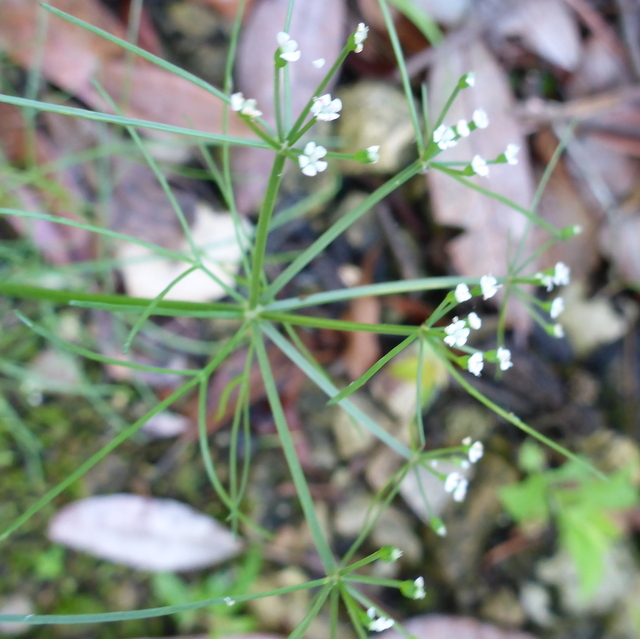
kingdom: Plantae
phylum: Tracheophyta
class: Magnoliopsida
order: Apiales
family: Apiaceae
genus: Ptilimnium
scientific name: Ptilimnium capillaceum
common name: Herbwilliam
